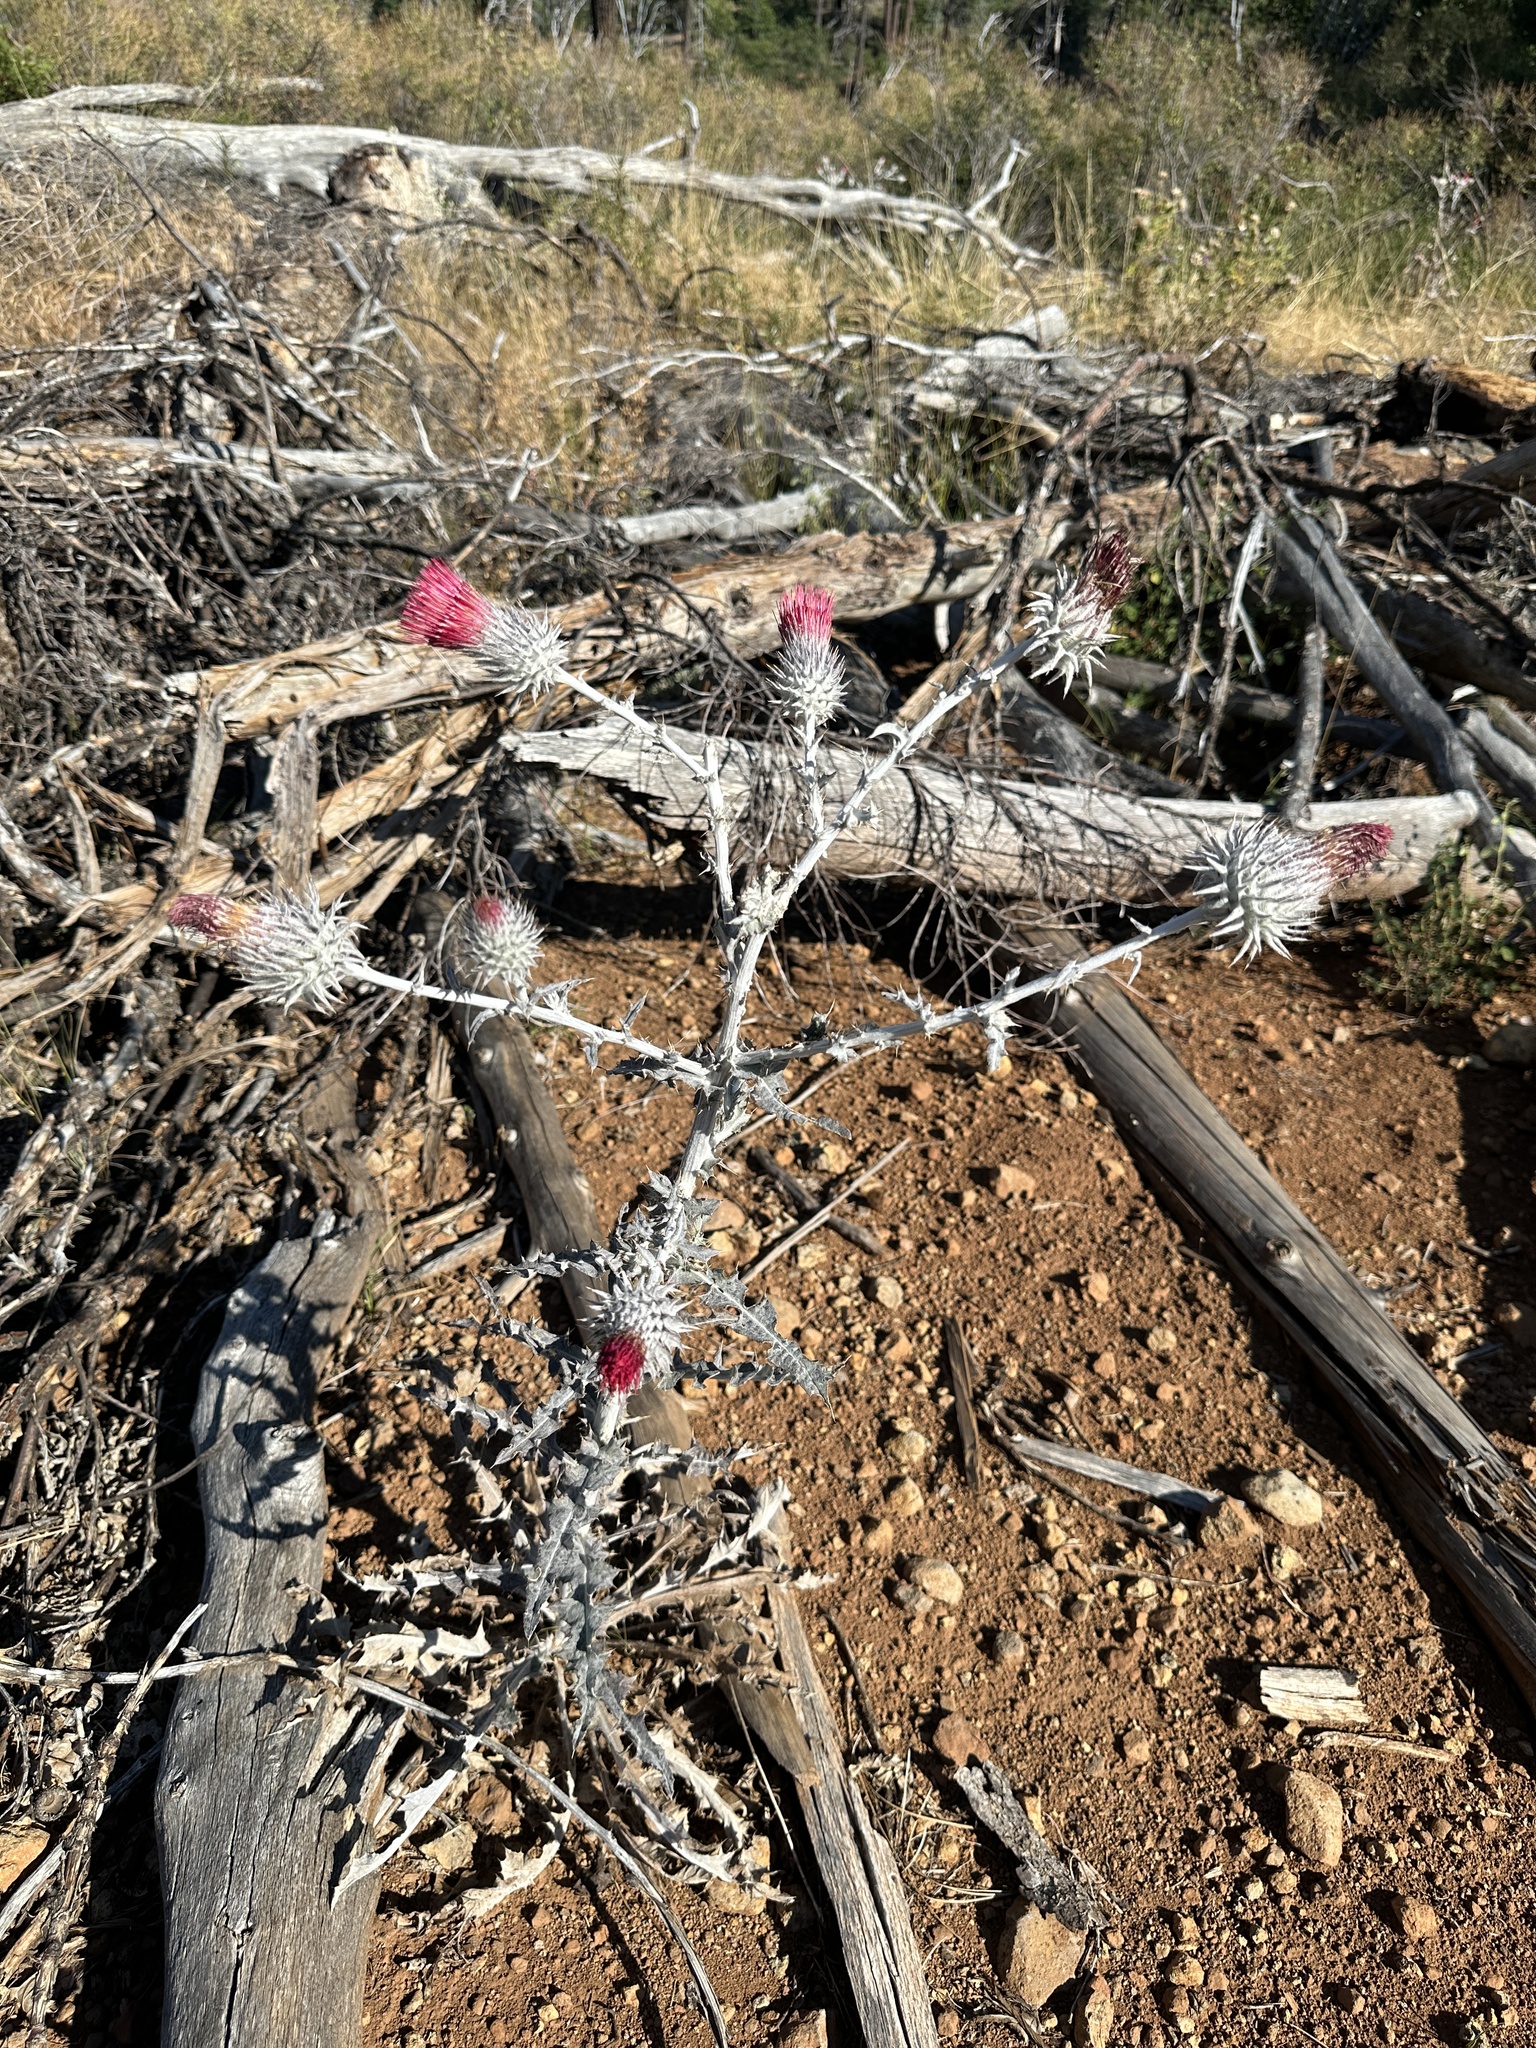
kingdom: Plantae
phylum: Tracheophyta
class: Magnoliopsida
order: Asterales
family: Asteraceae
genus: Cirsium
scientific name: Cirsium occidentale
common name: Western thistle
